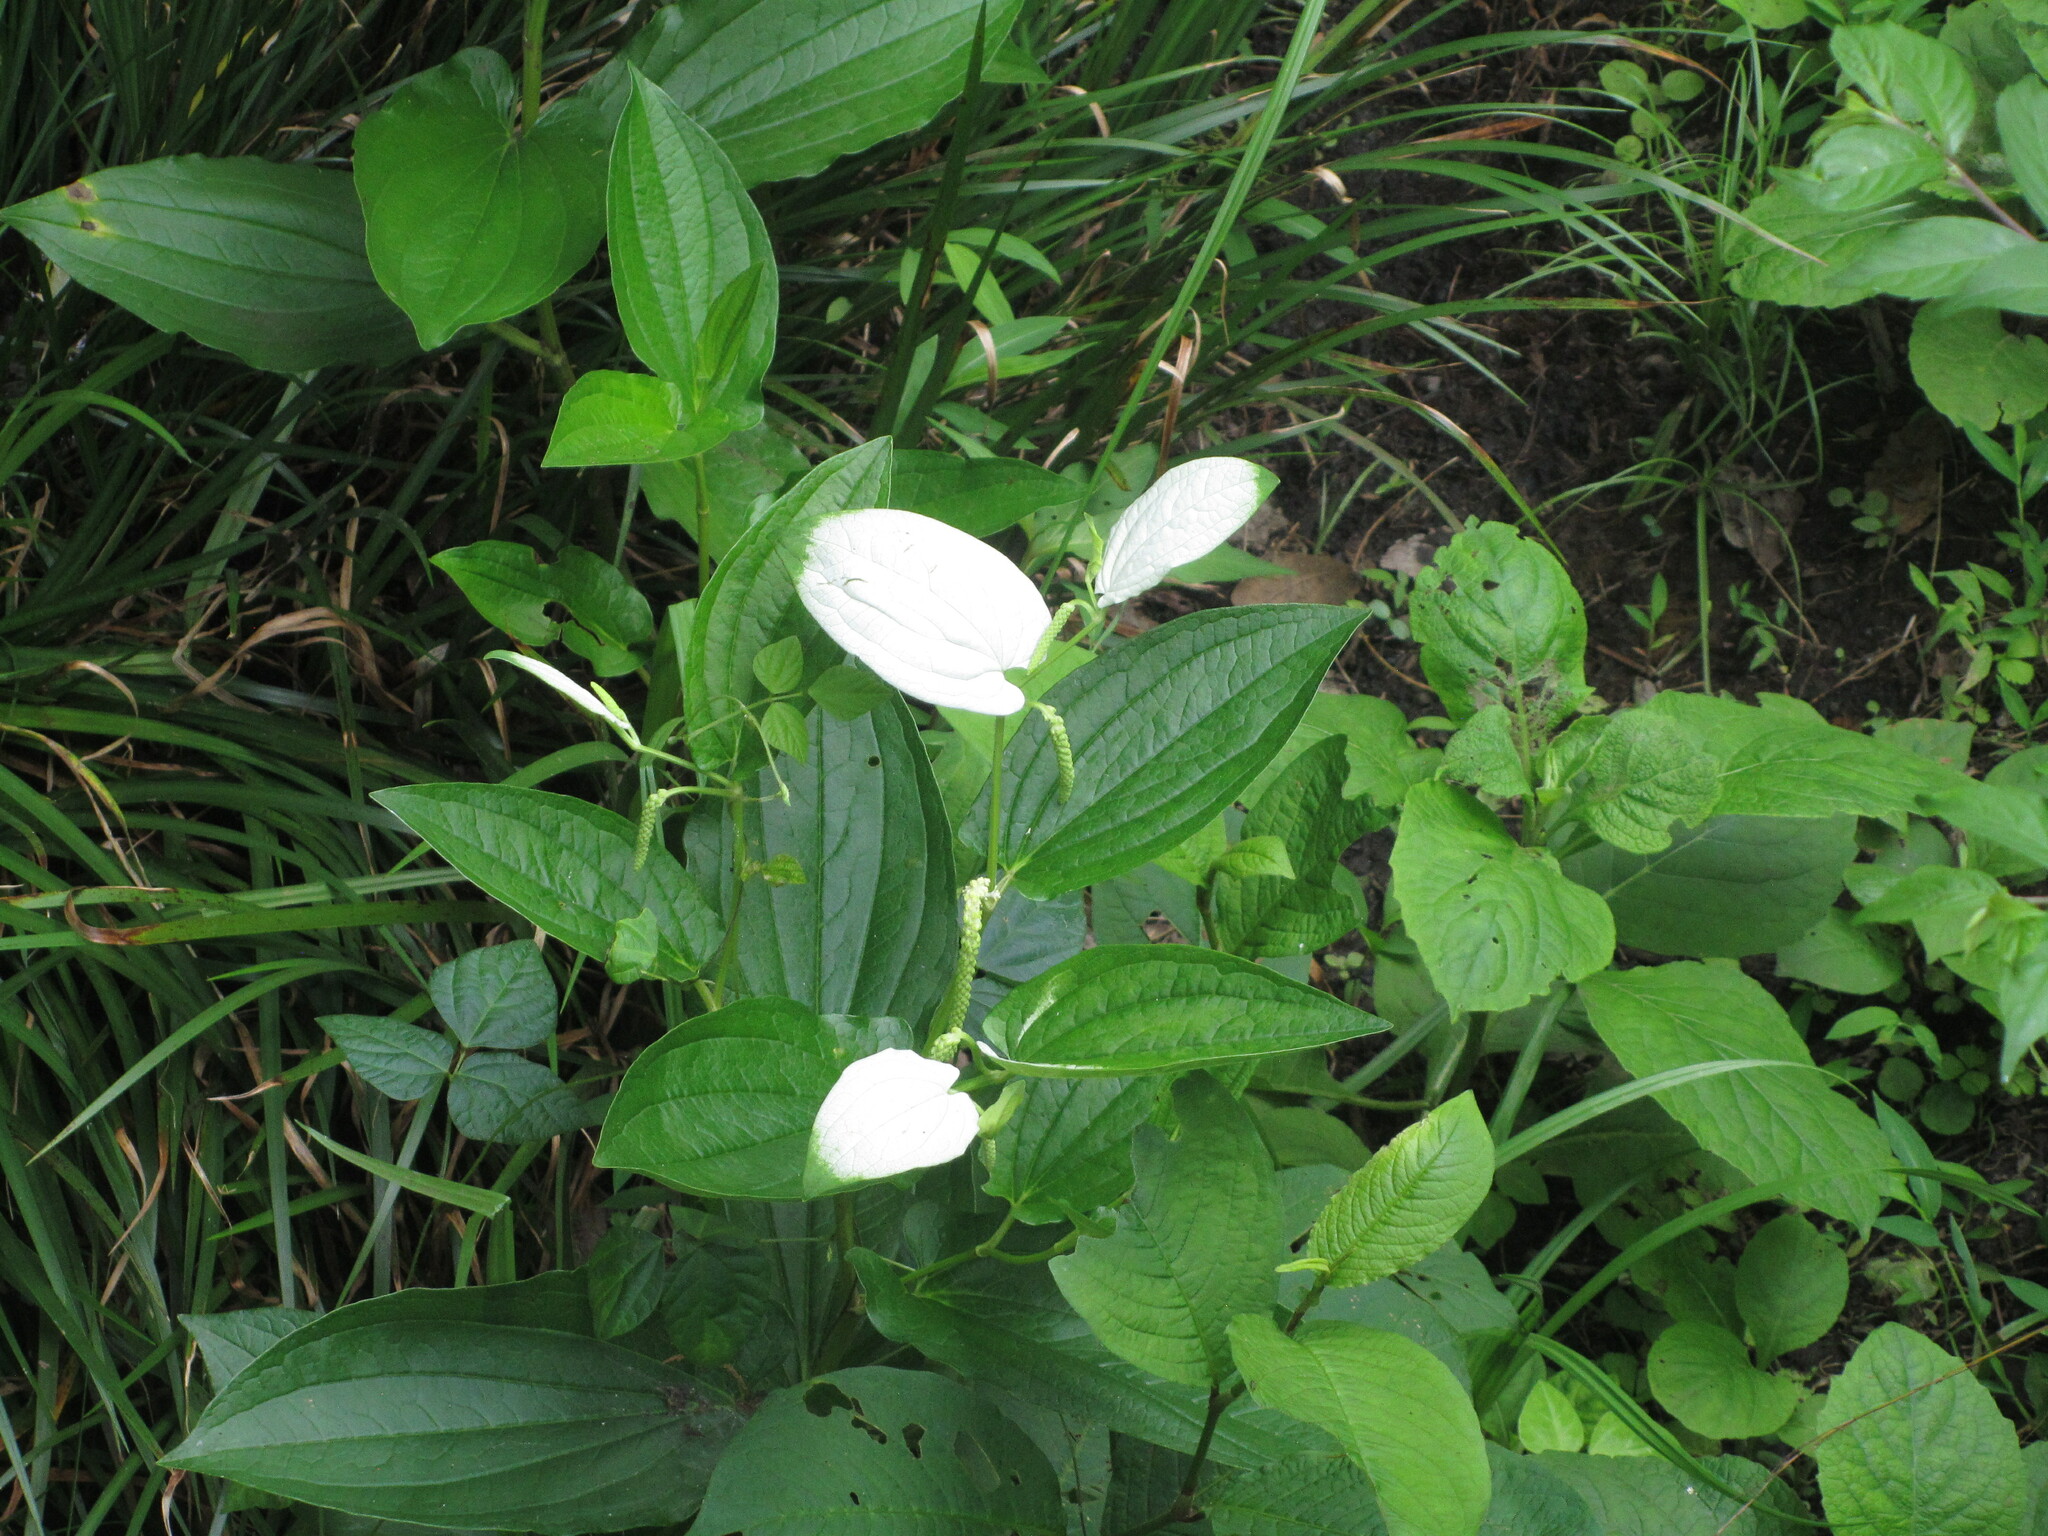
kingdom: Plantae
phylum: Tracheophyta
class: Magnoliopsida
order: Piperales
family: Saururaceae
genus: Saururus
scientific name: Saururus chinensis
